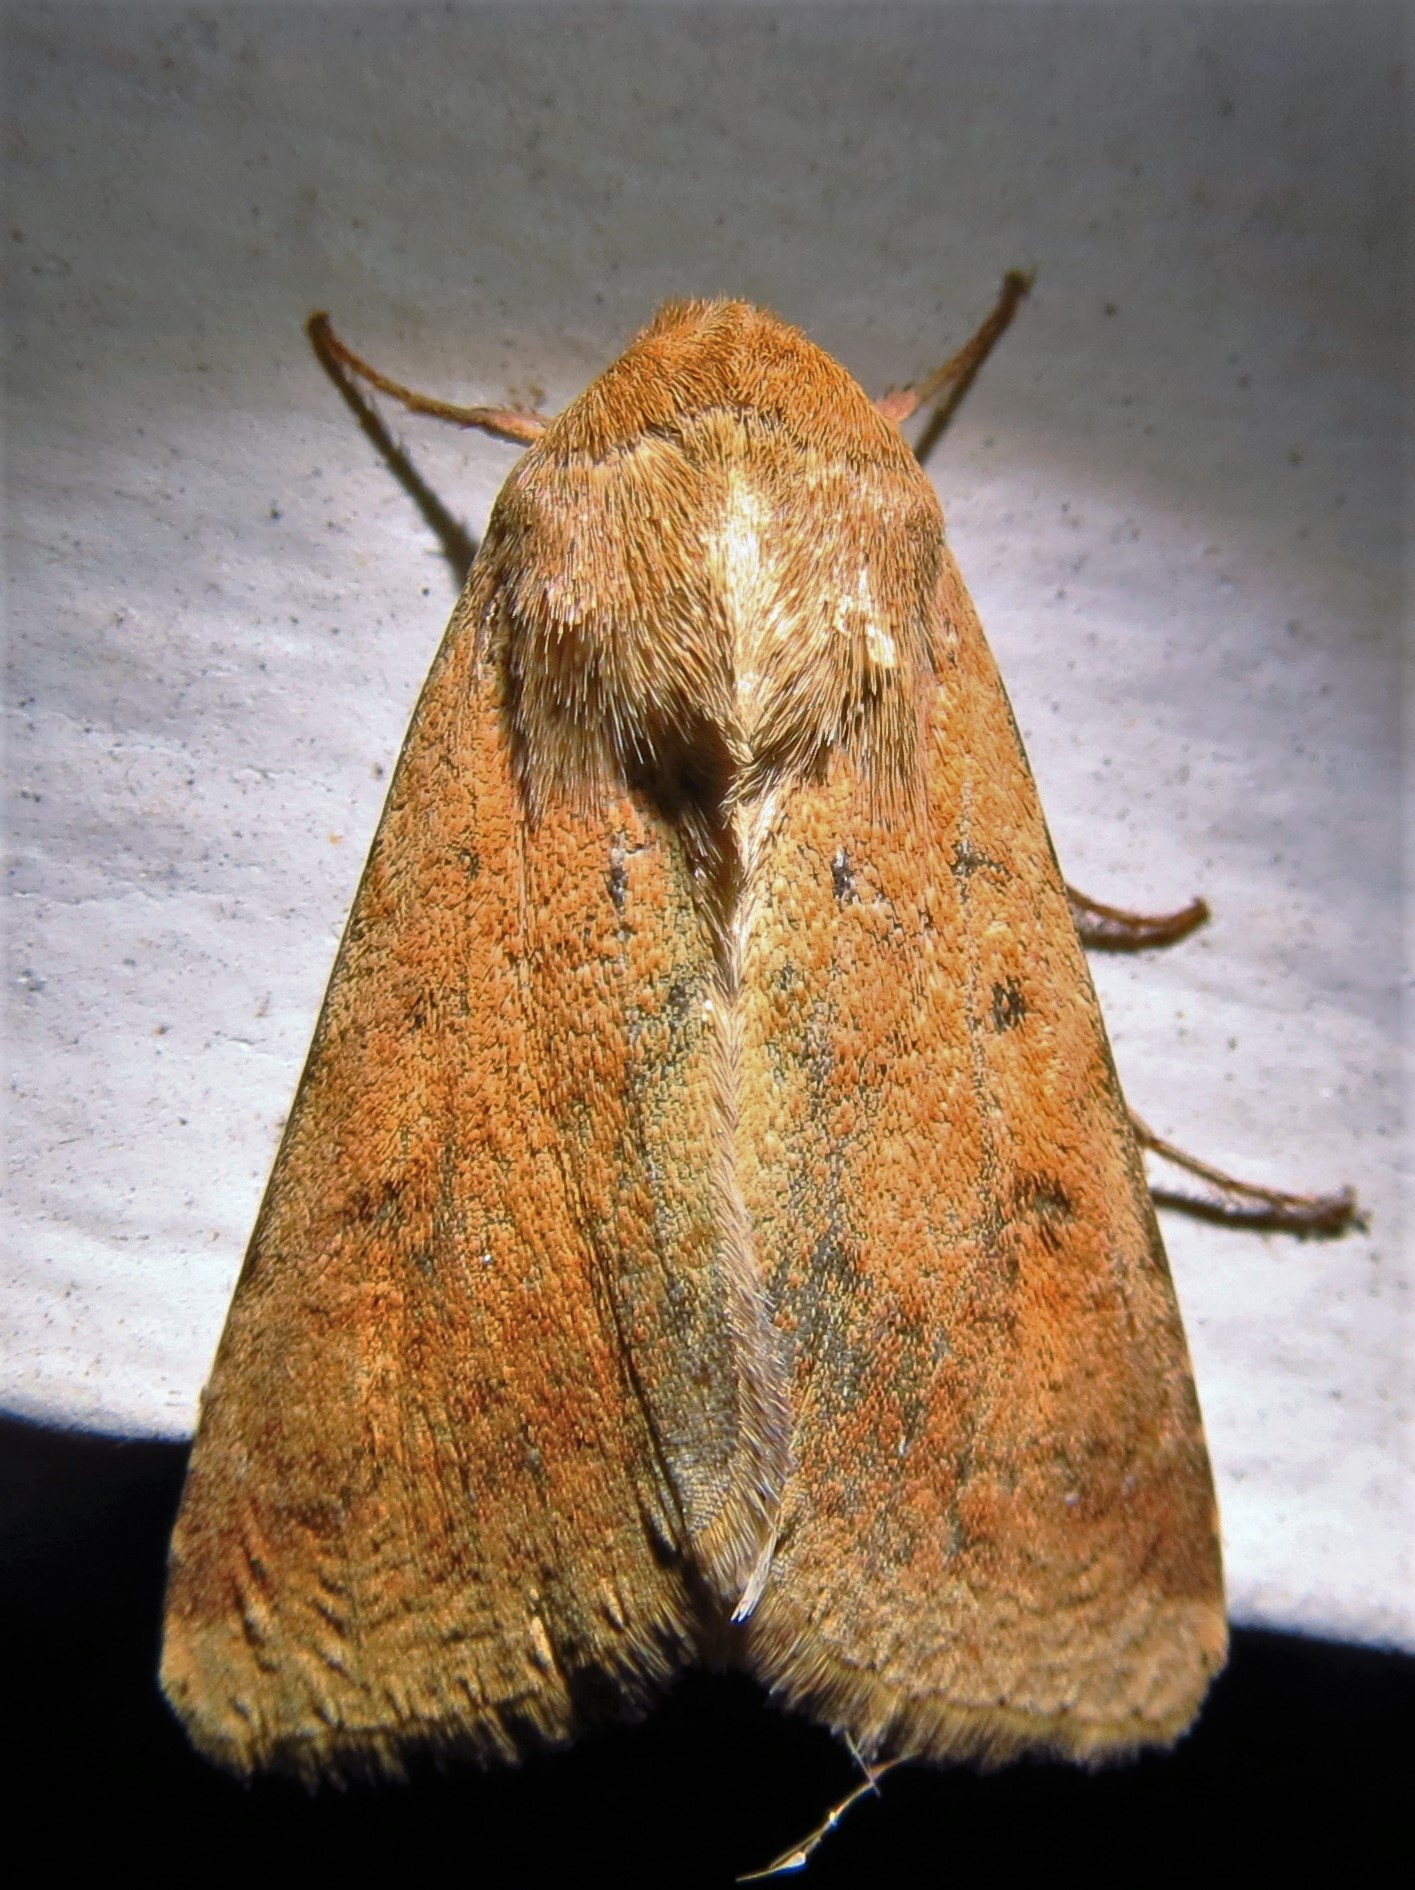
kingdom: Animalia
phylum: Arthropoda
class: Insecta
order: Lepidoptera
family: Noctuidae
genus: Helicoverpa
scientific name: Helicoverpa zea
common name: Bollworm
